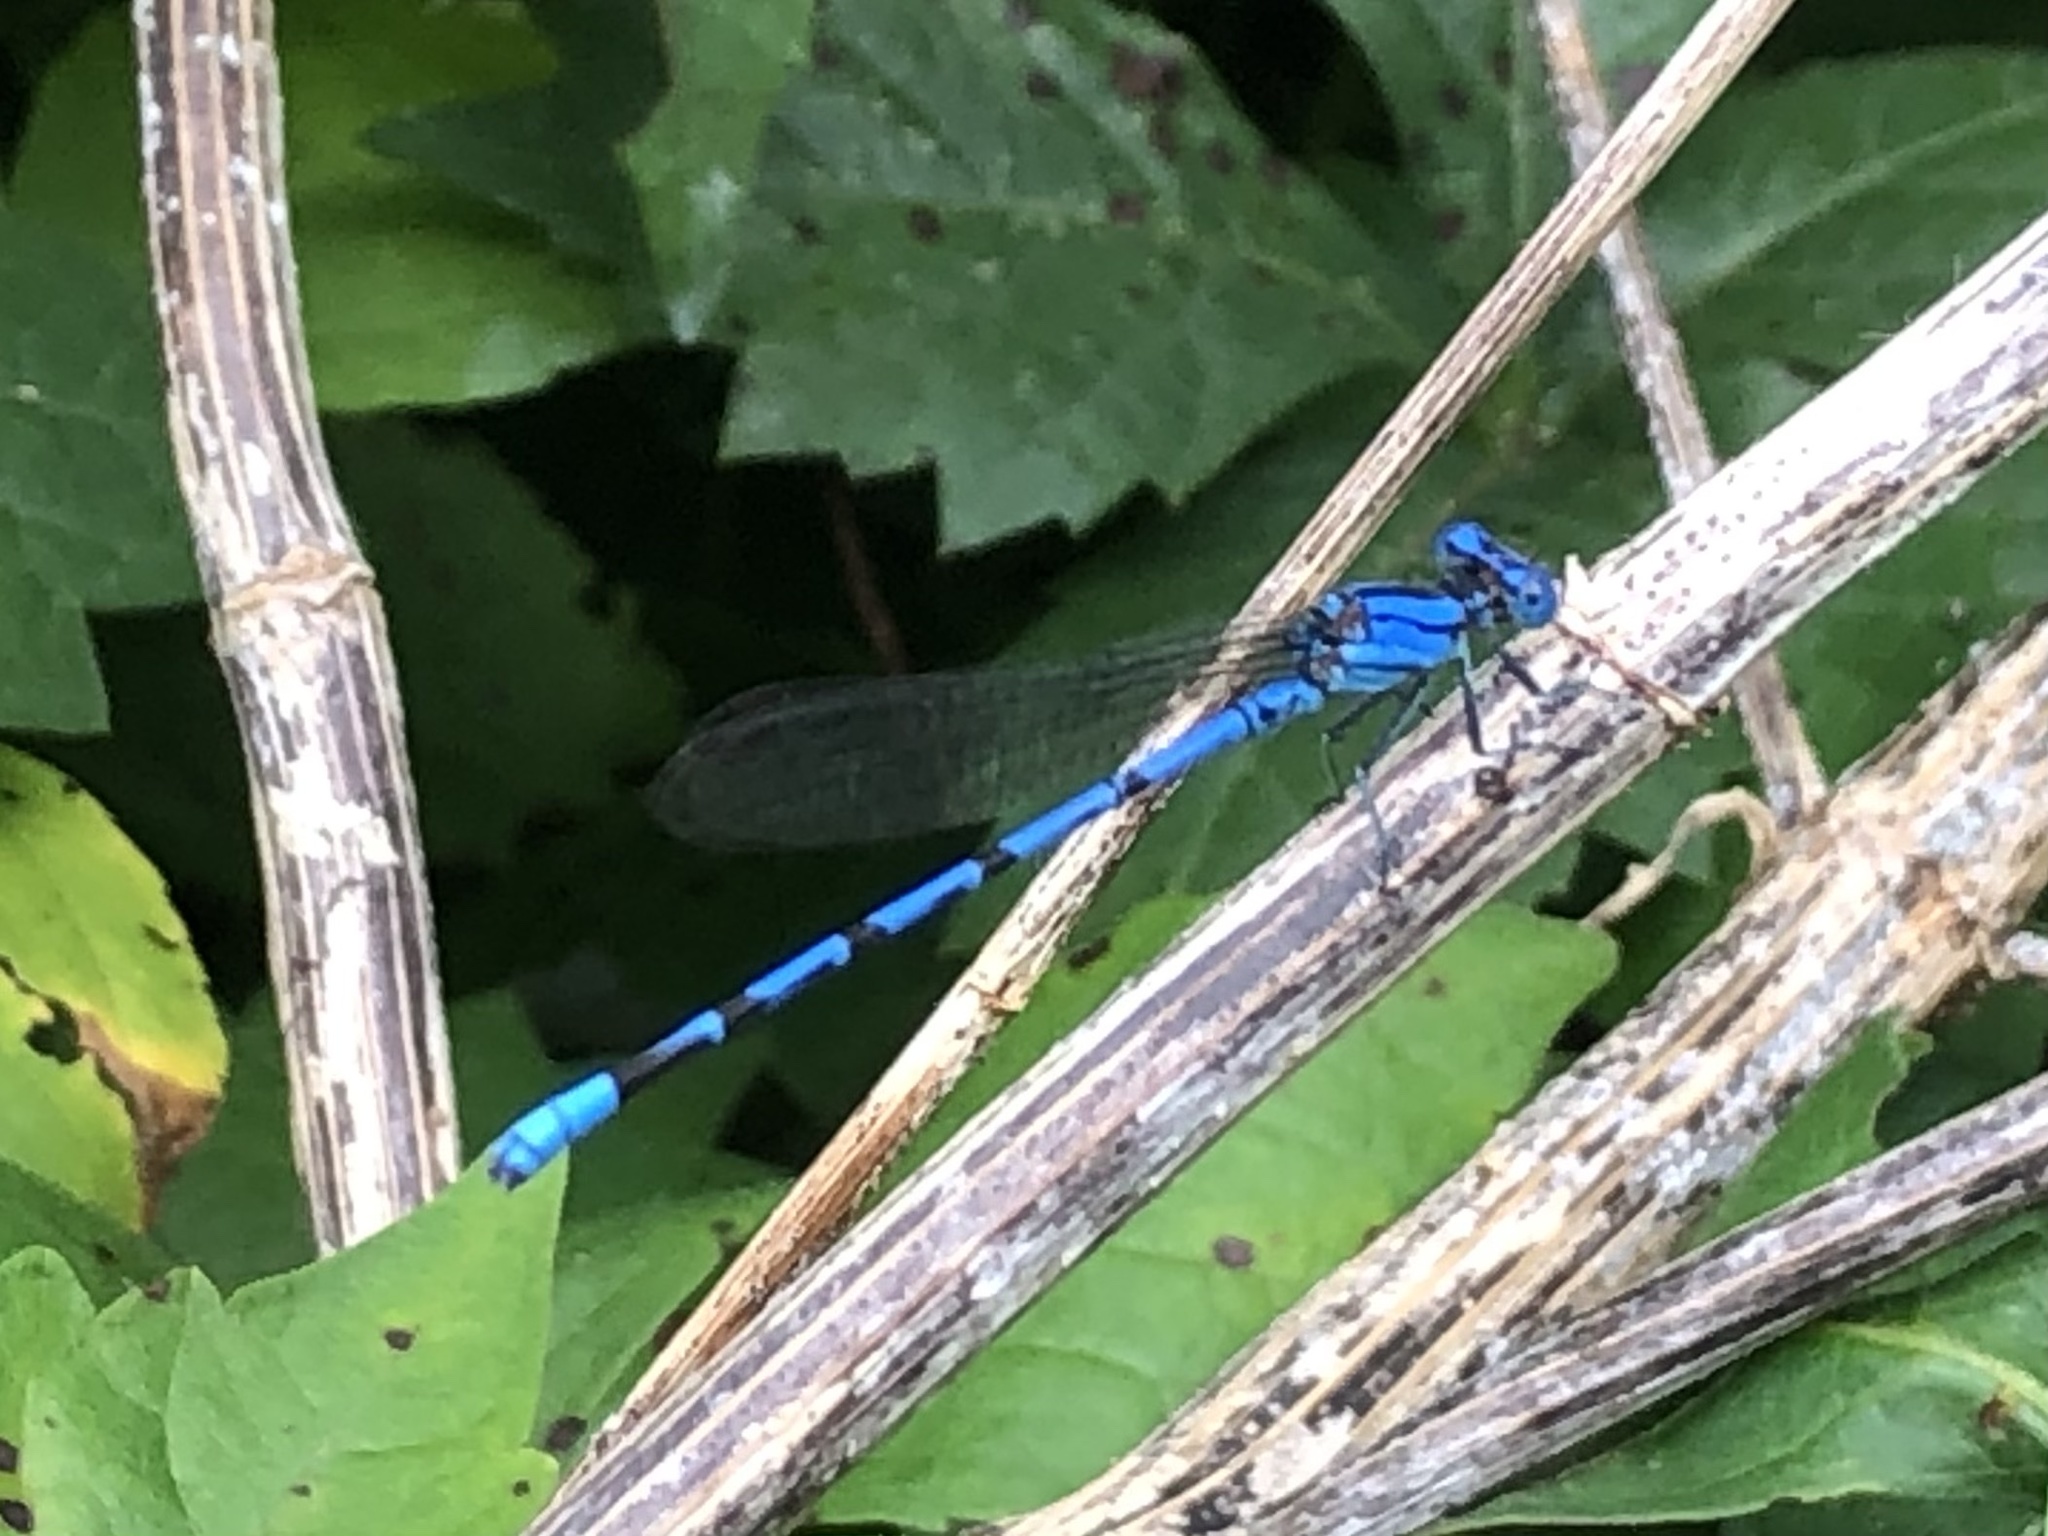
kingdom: Animalia
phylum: Arthropoda
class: Insecta
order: Odonata
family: Coenagrionidae
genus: Argia
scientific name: Argia funebris
